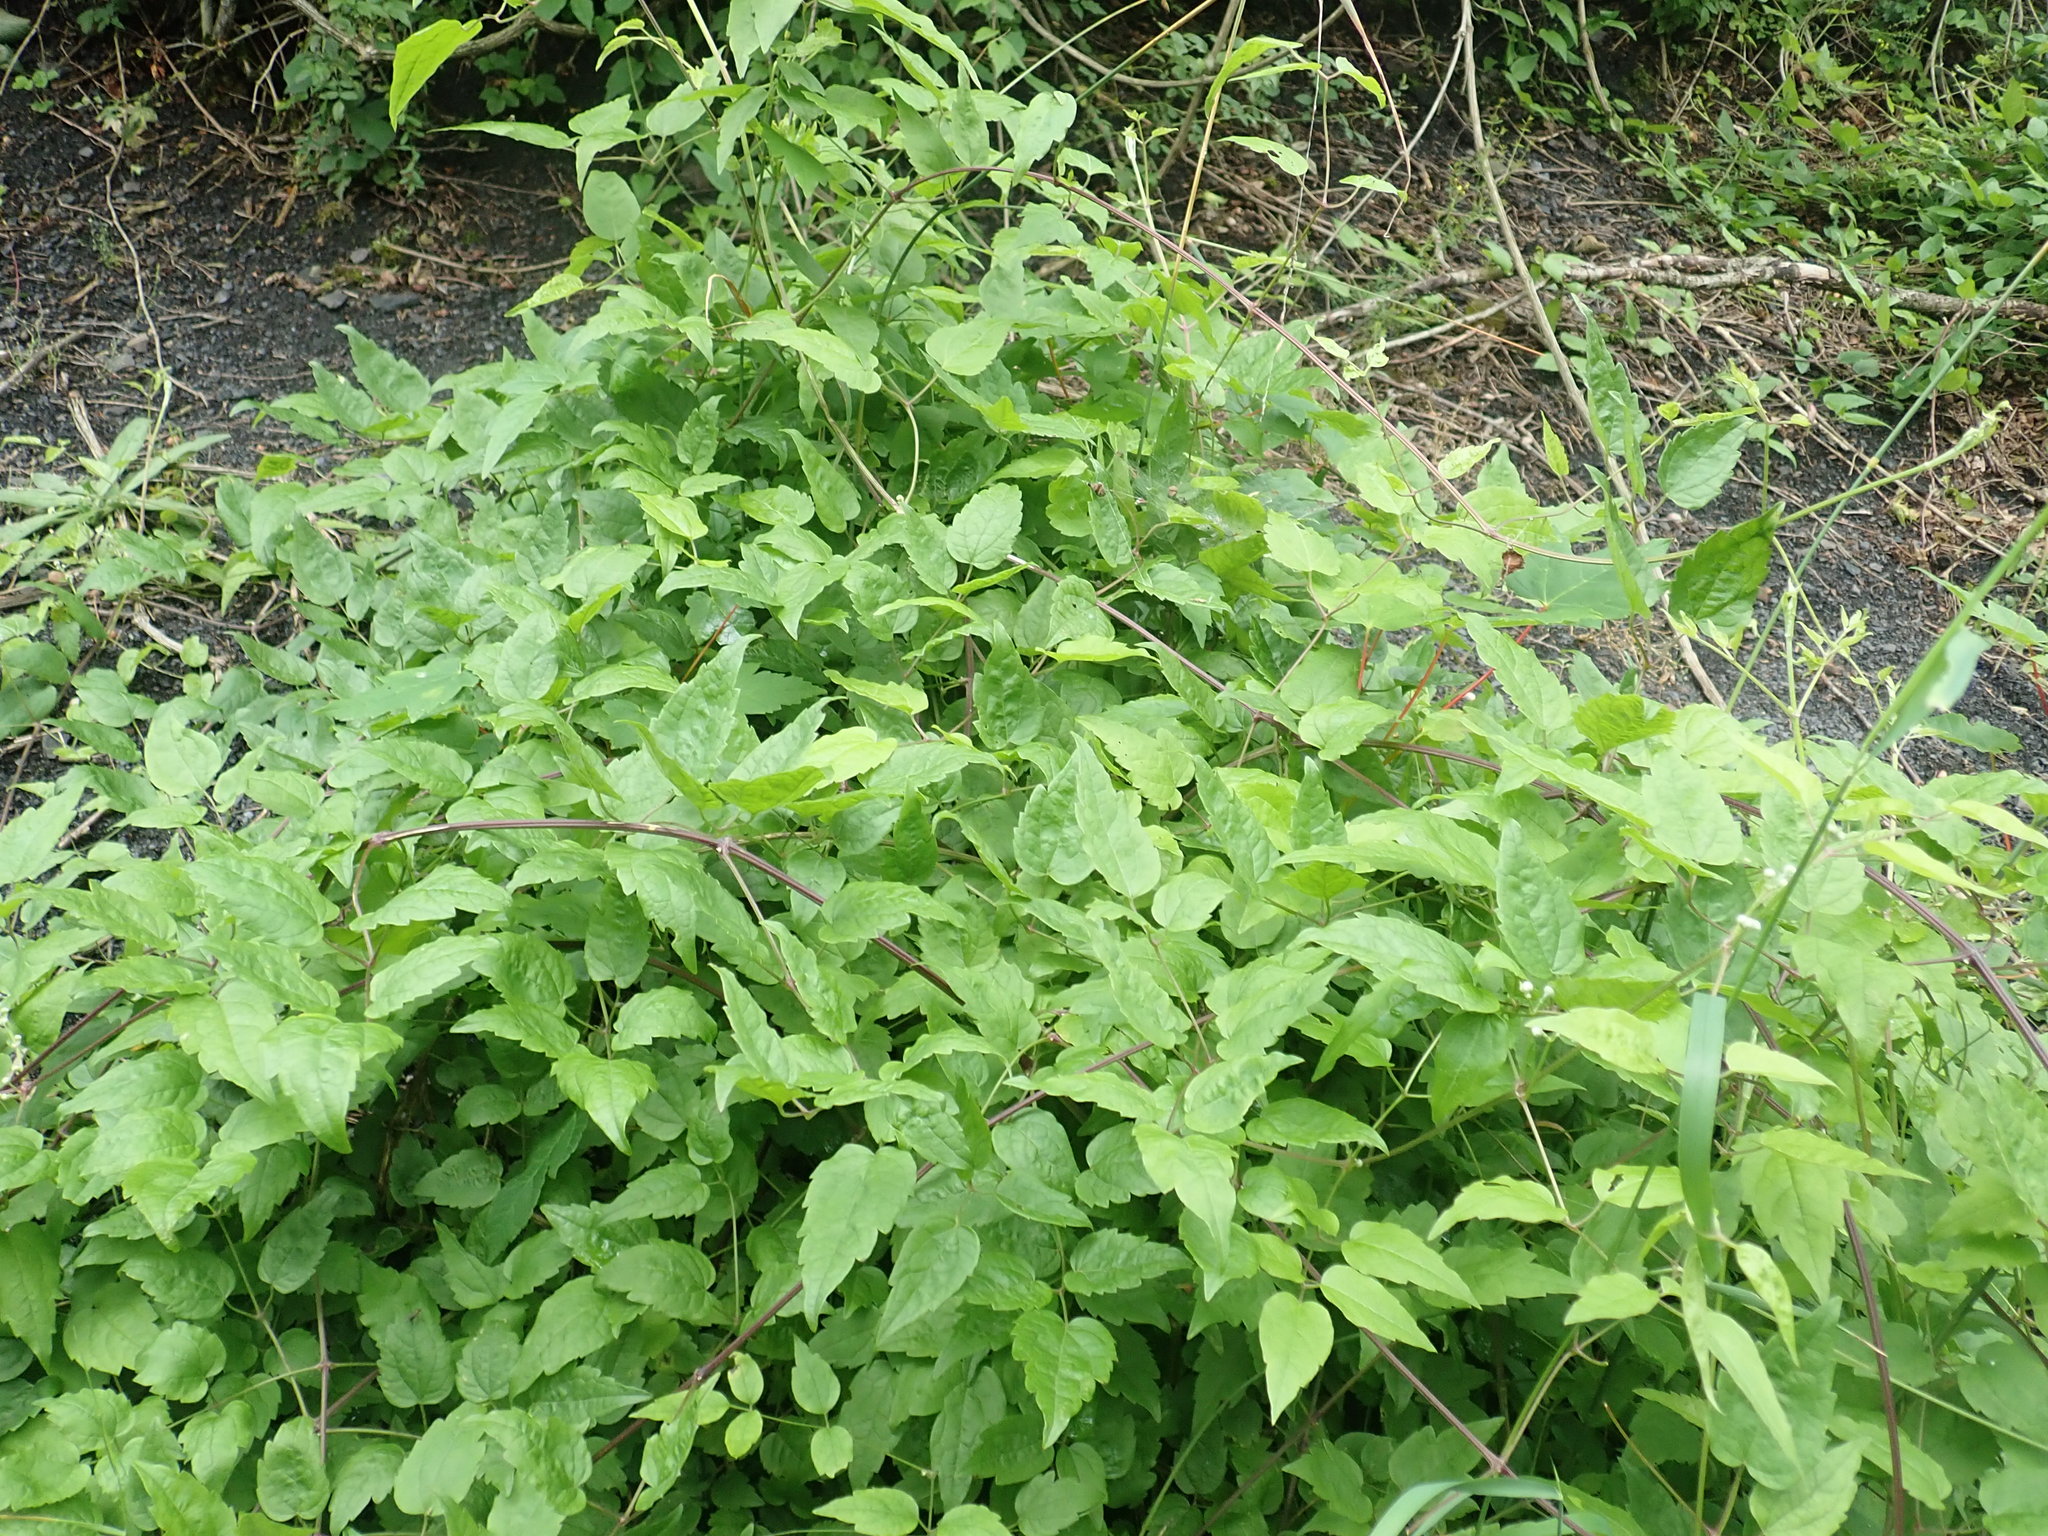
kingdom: Plantae
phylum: Tracheophyta
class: Magnoliopsida
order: Ranunculales
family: Ranunculaceae
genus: Clematis
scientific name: Clematis vitalba
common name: Evergreen clematis
